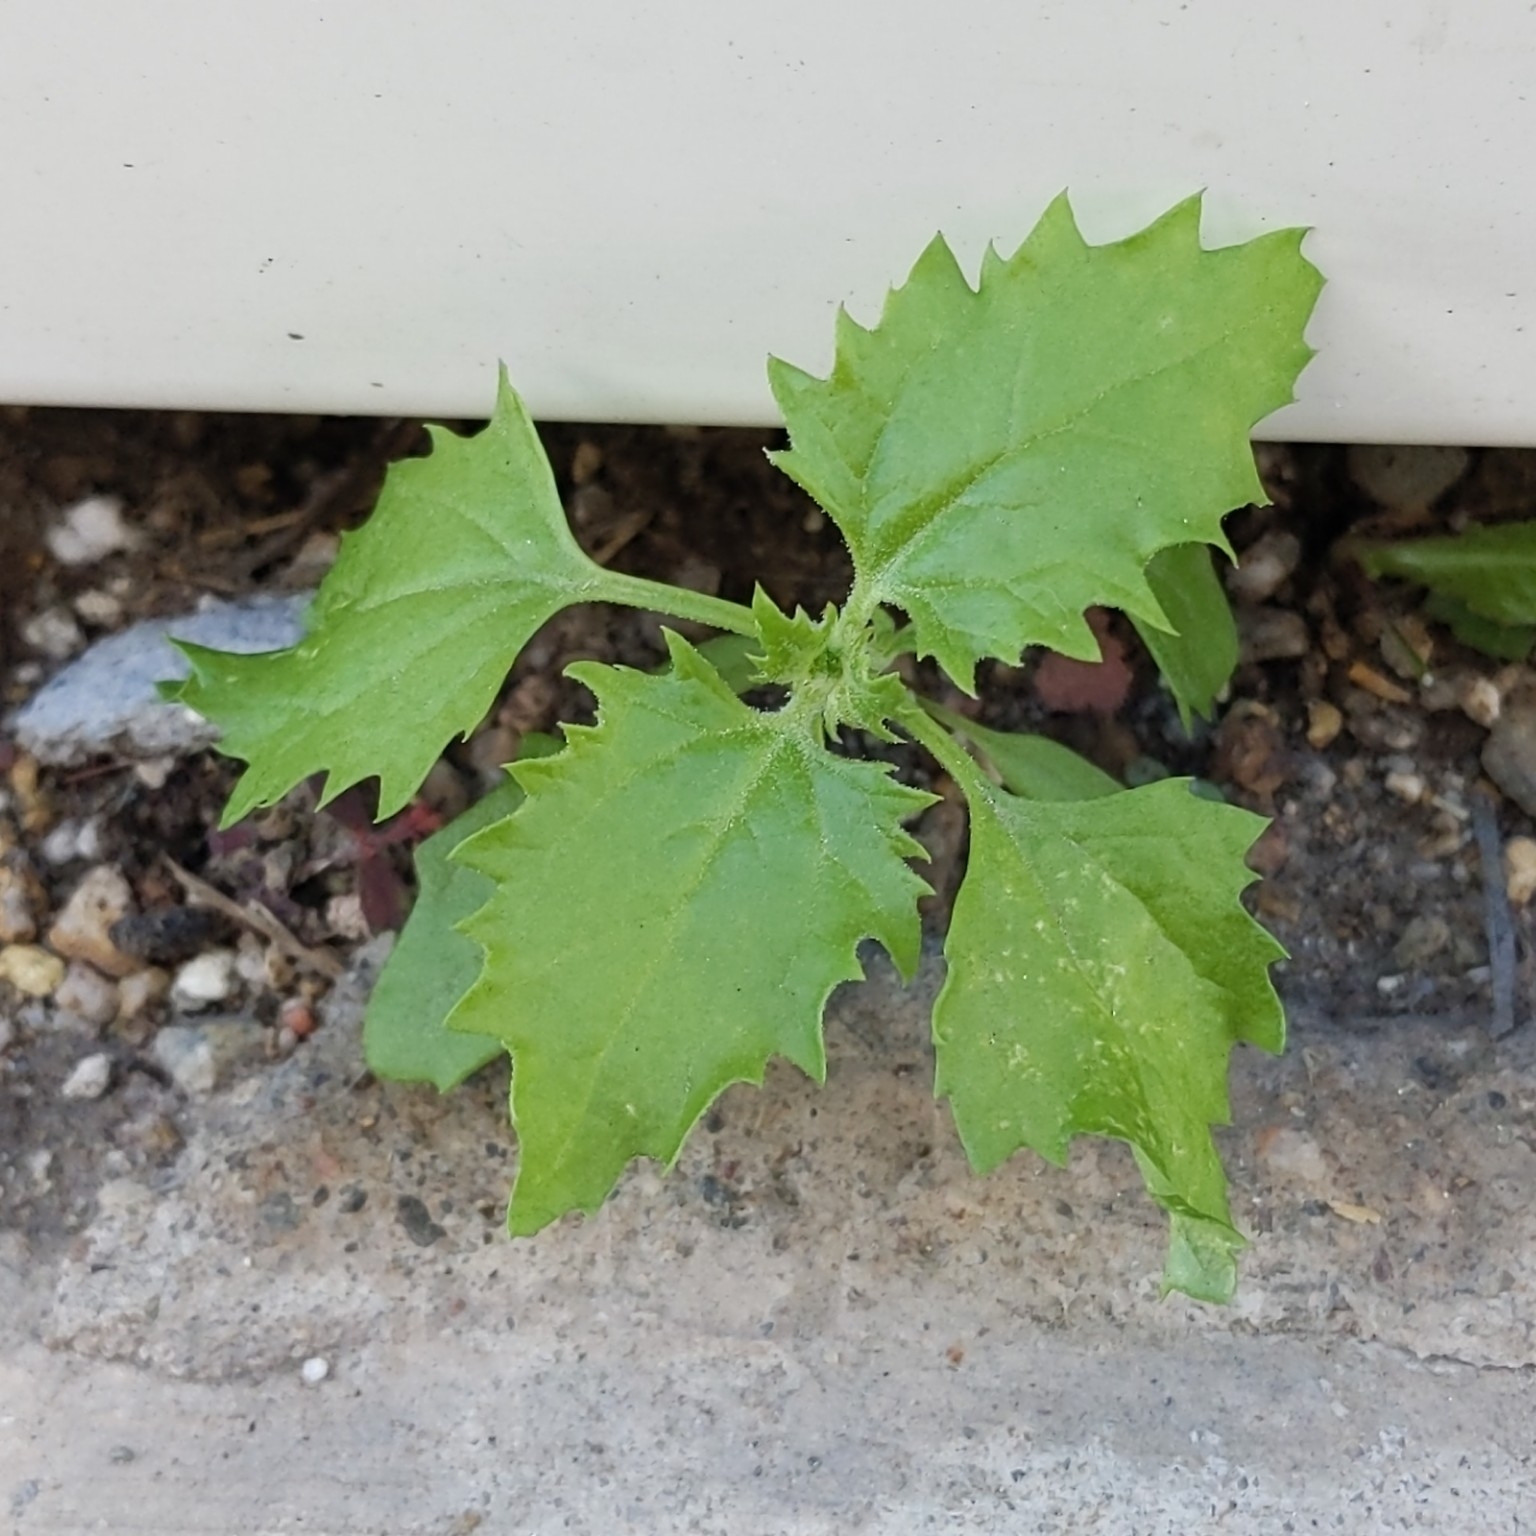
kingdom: Plantae
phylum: Tracheophyta
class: Magnoliopsida
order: Caryophyllales
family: Amaranthaceae
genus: Chenopodiastrum
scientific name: Chenopodiastrum murale
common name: Sowbane
